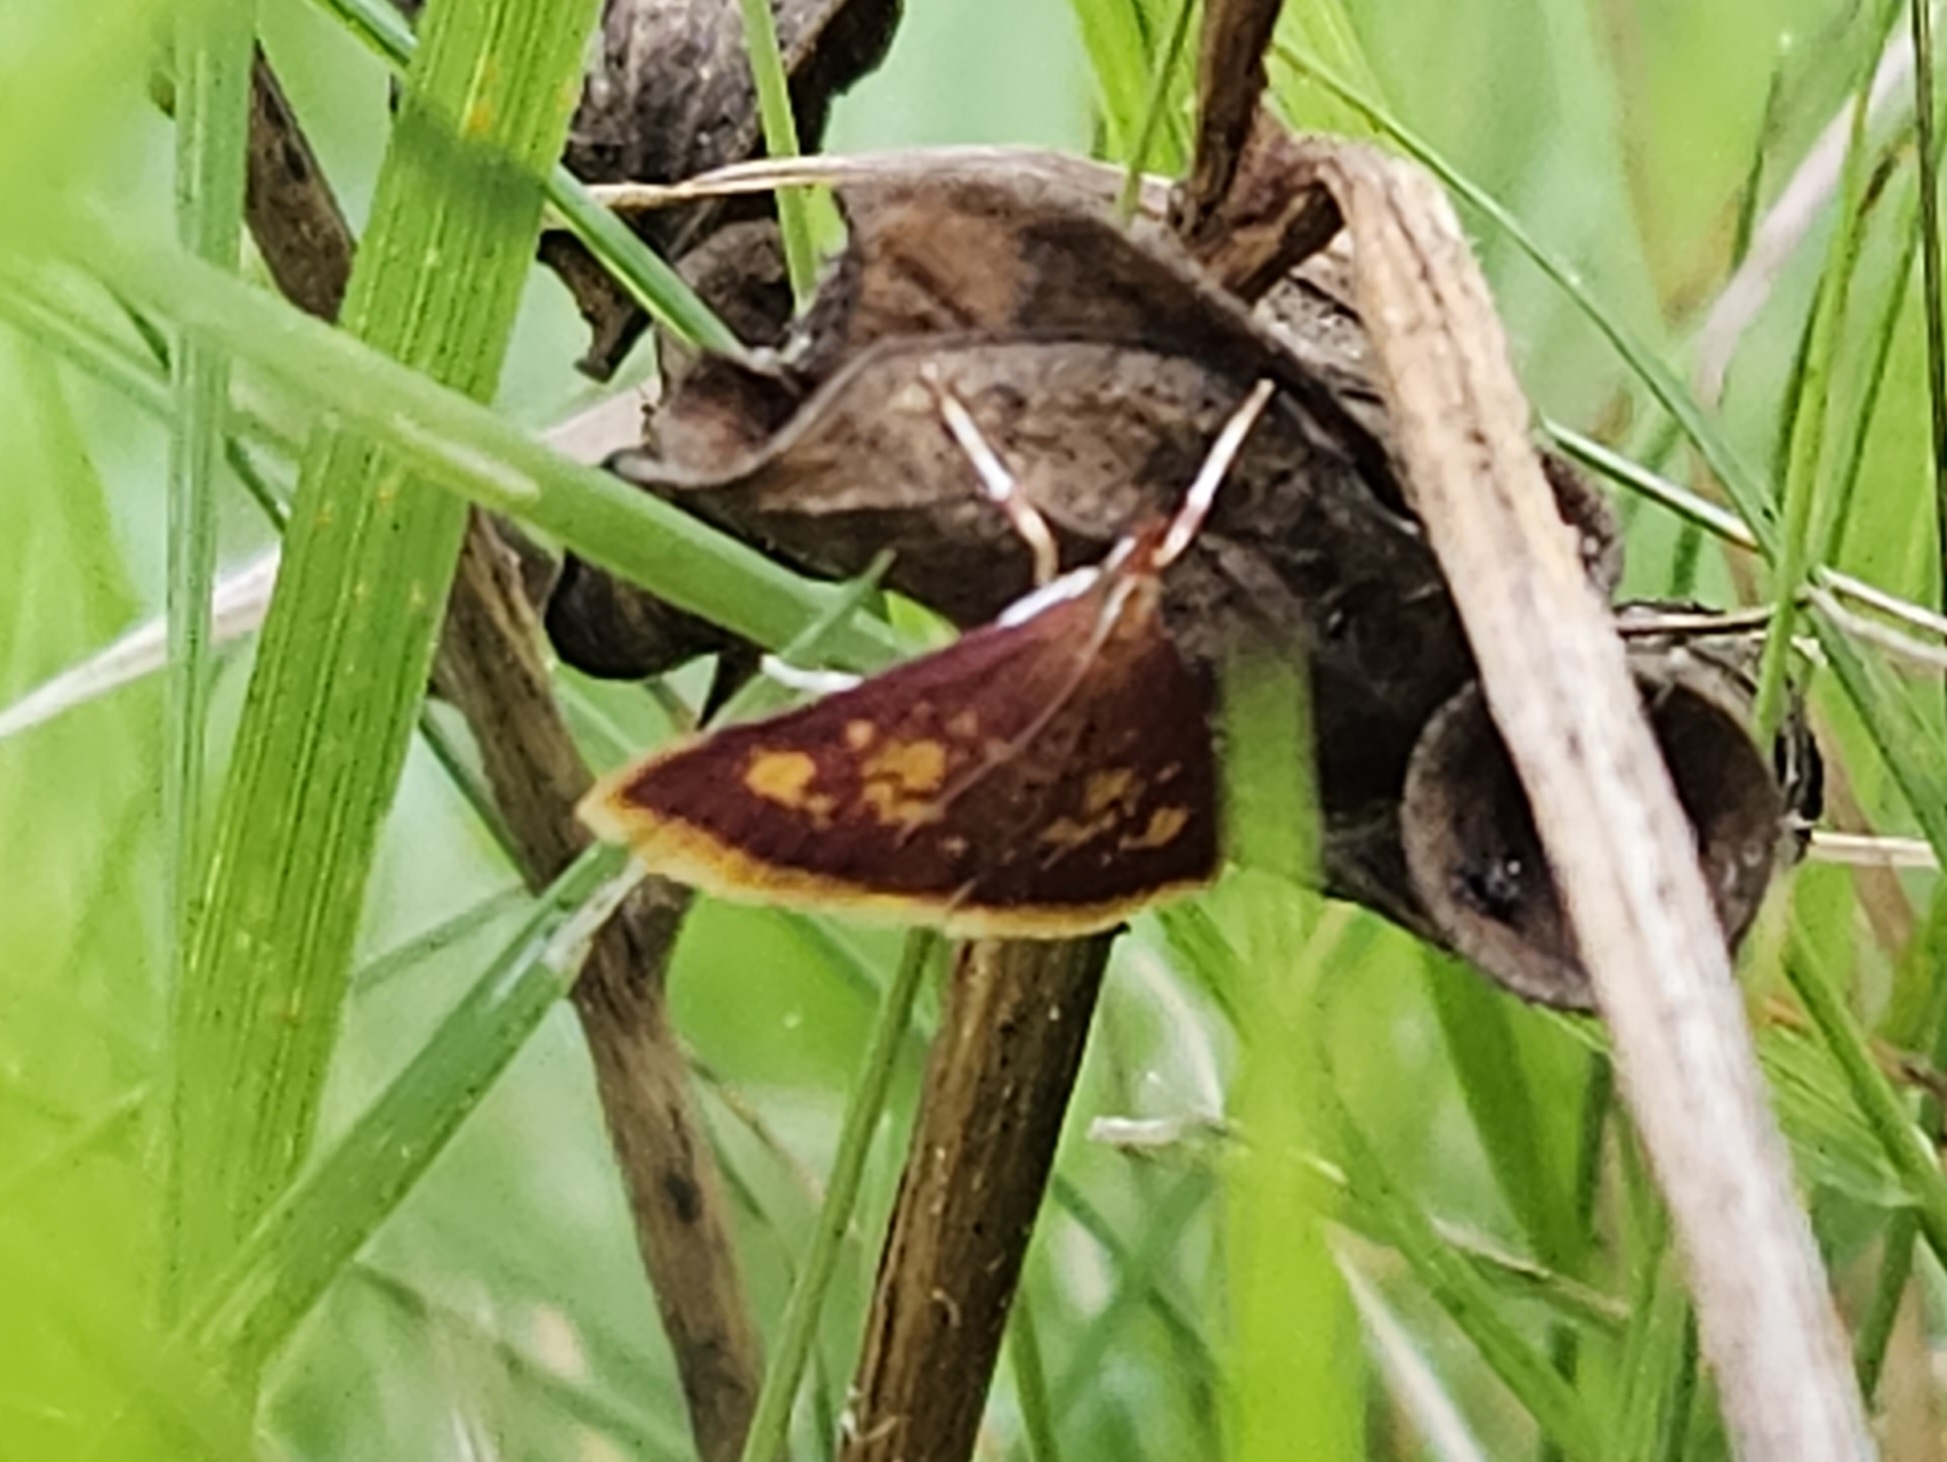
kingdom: Animalia
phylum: Arthropoda
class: Insecta
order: Lepidoptera
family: Crambidae
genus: Pyrausta
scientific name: Pyrausta acrionalis
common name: Mint-loving pyrausta moth
